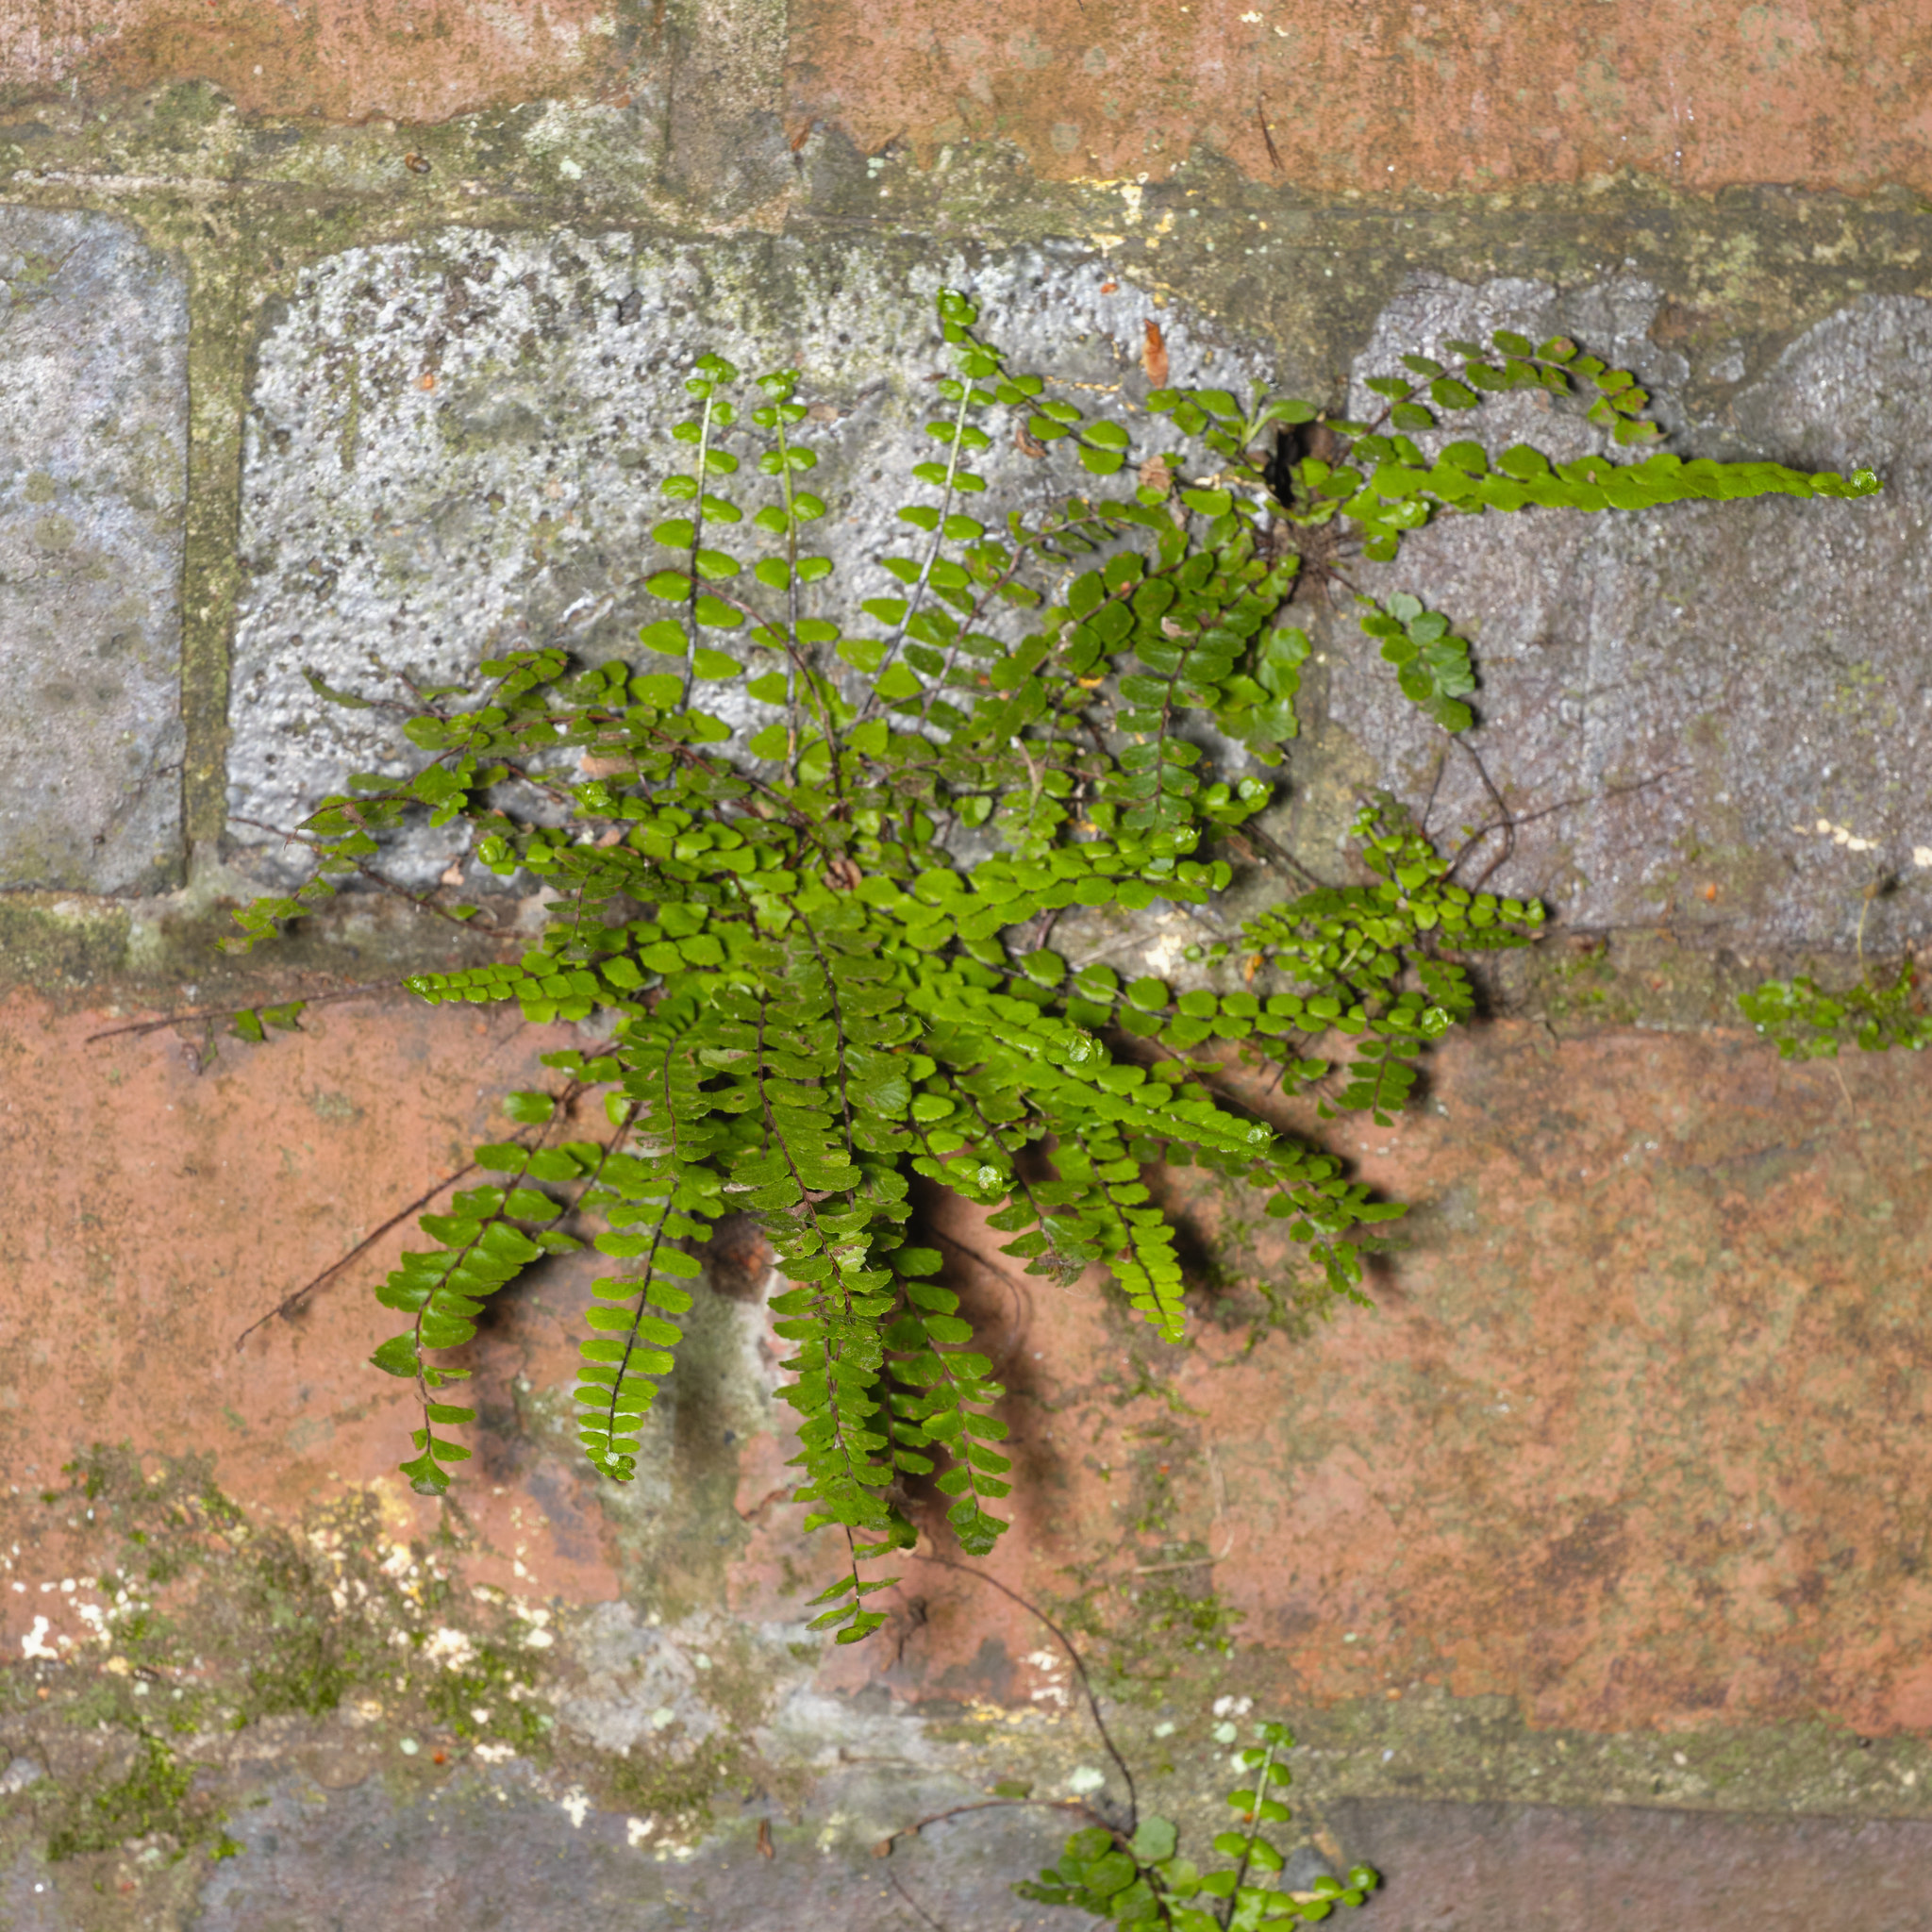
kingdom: Plantae
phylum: Tracheophyta
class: Polypodiopsida
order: Polypodiales
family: Aspleniaceae
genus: Asplenium
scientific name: Asplenium trichomanes
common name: Maidenhair spleenwort
